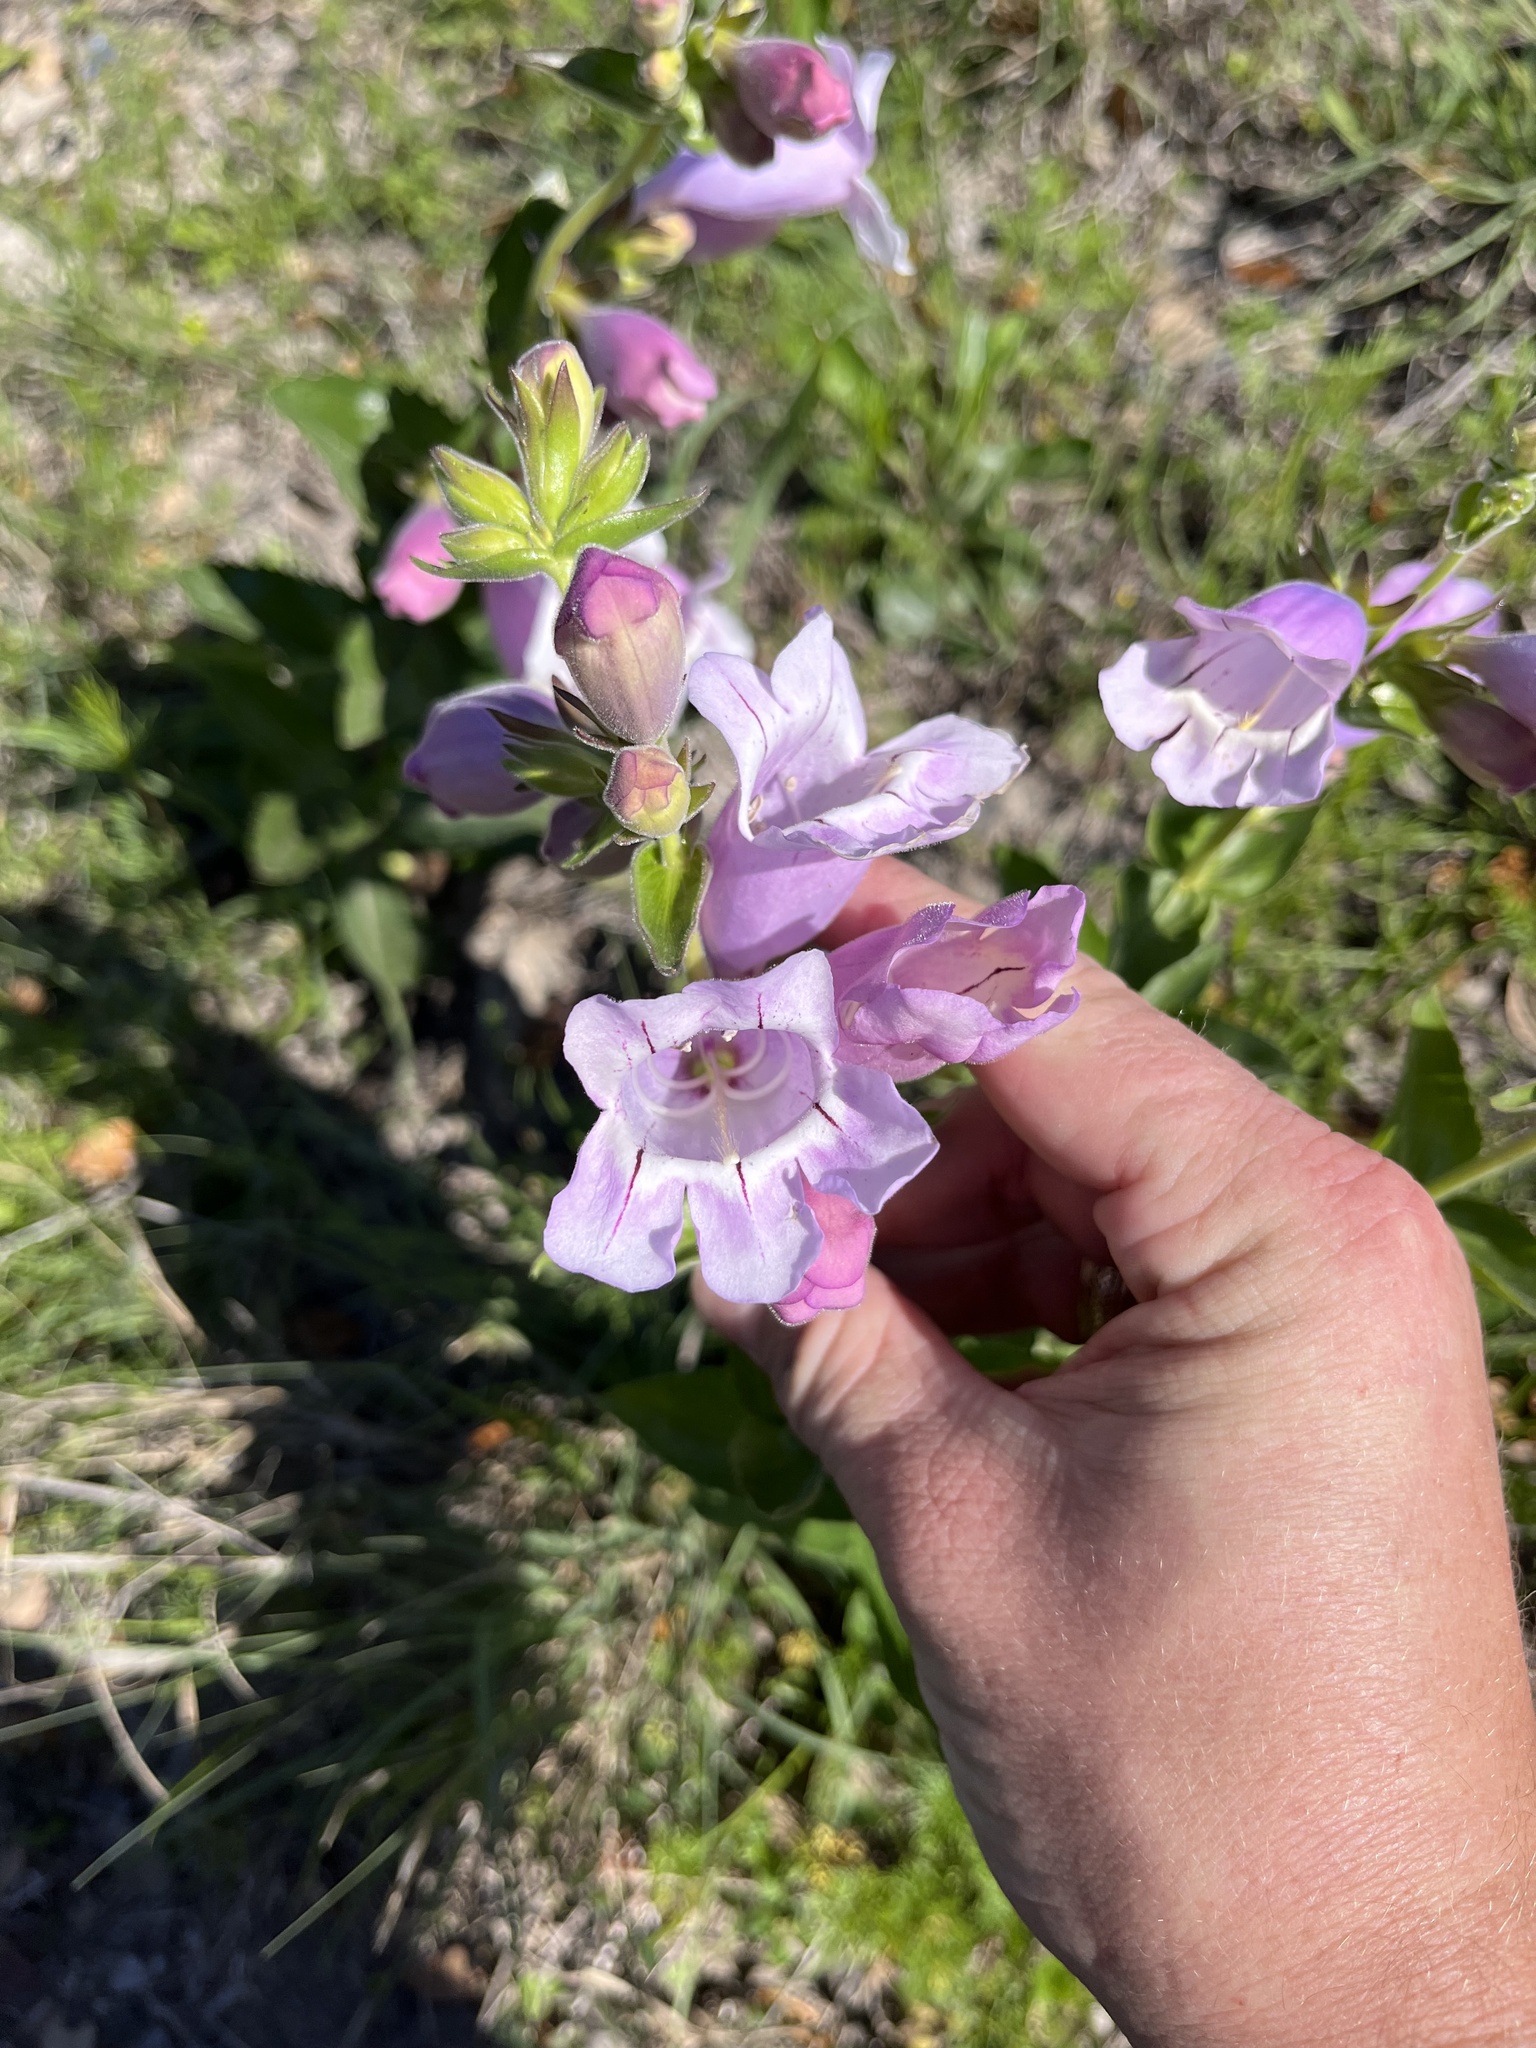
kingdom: Plantae
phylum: Tracheophyta
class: Magnoliopsida
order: Lamiales
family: Plantaginaceae
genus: Penstemon
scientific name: Penstemon cobaea
